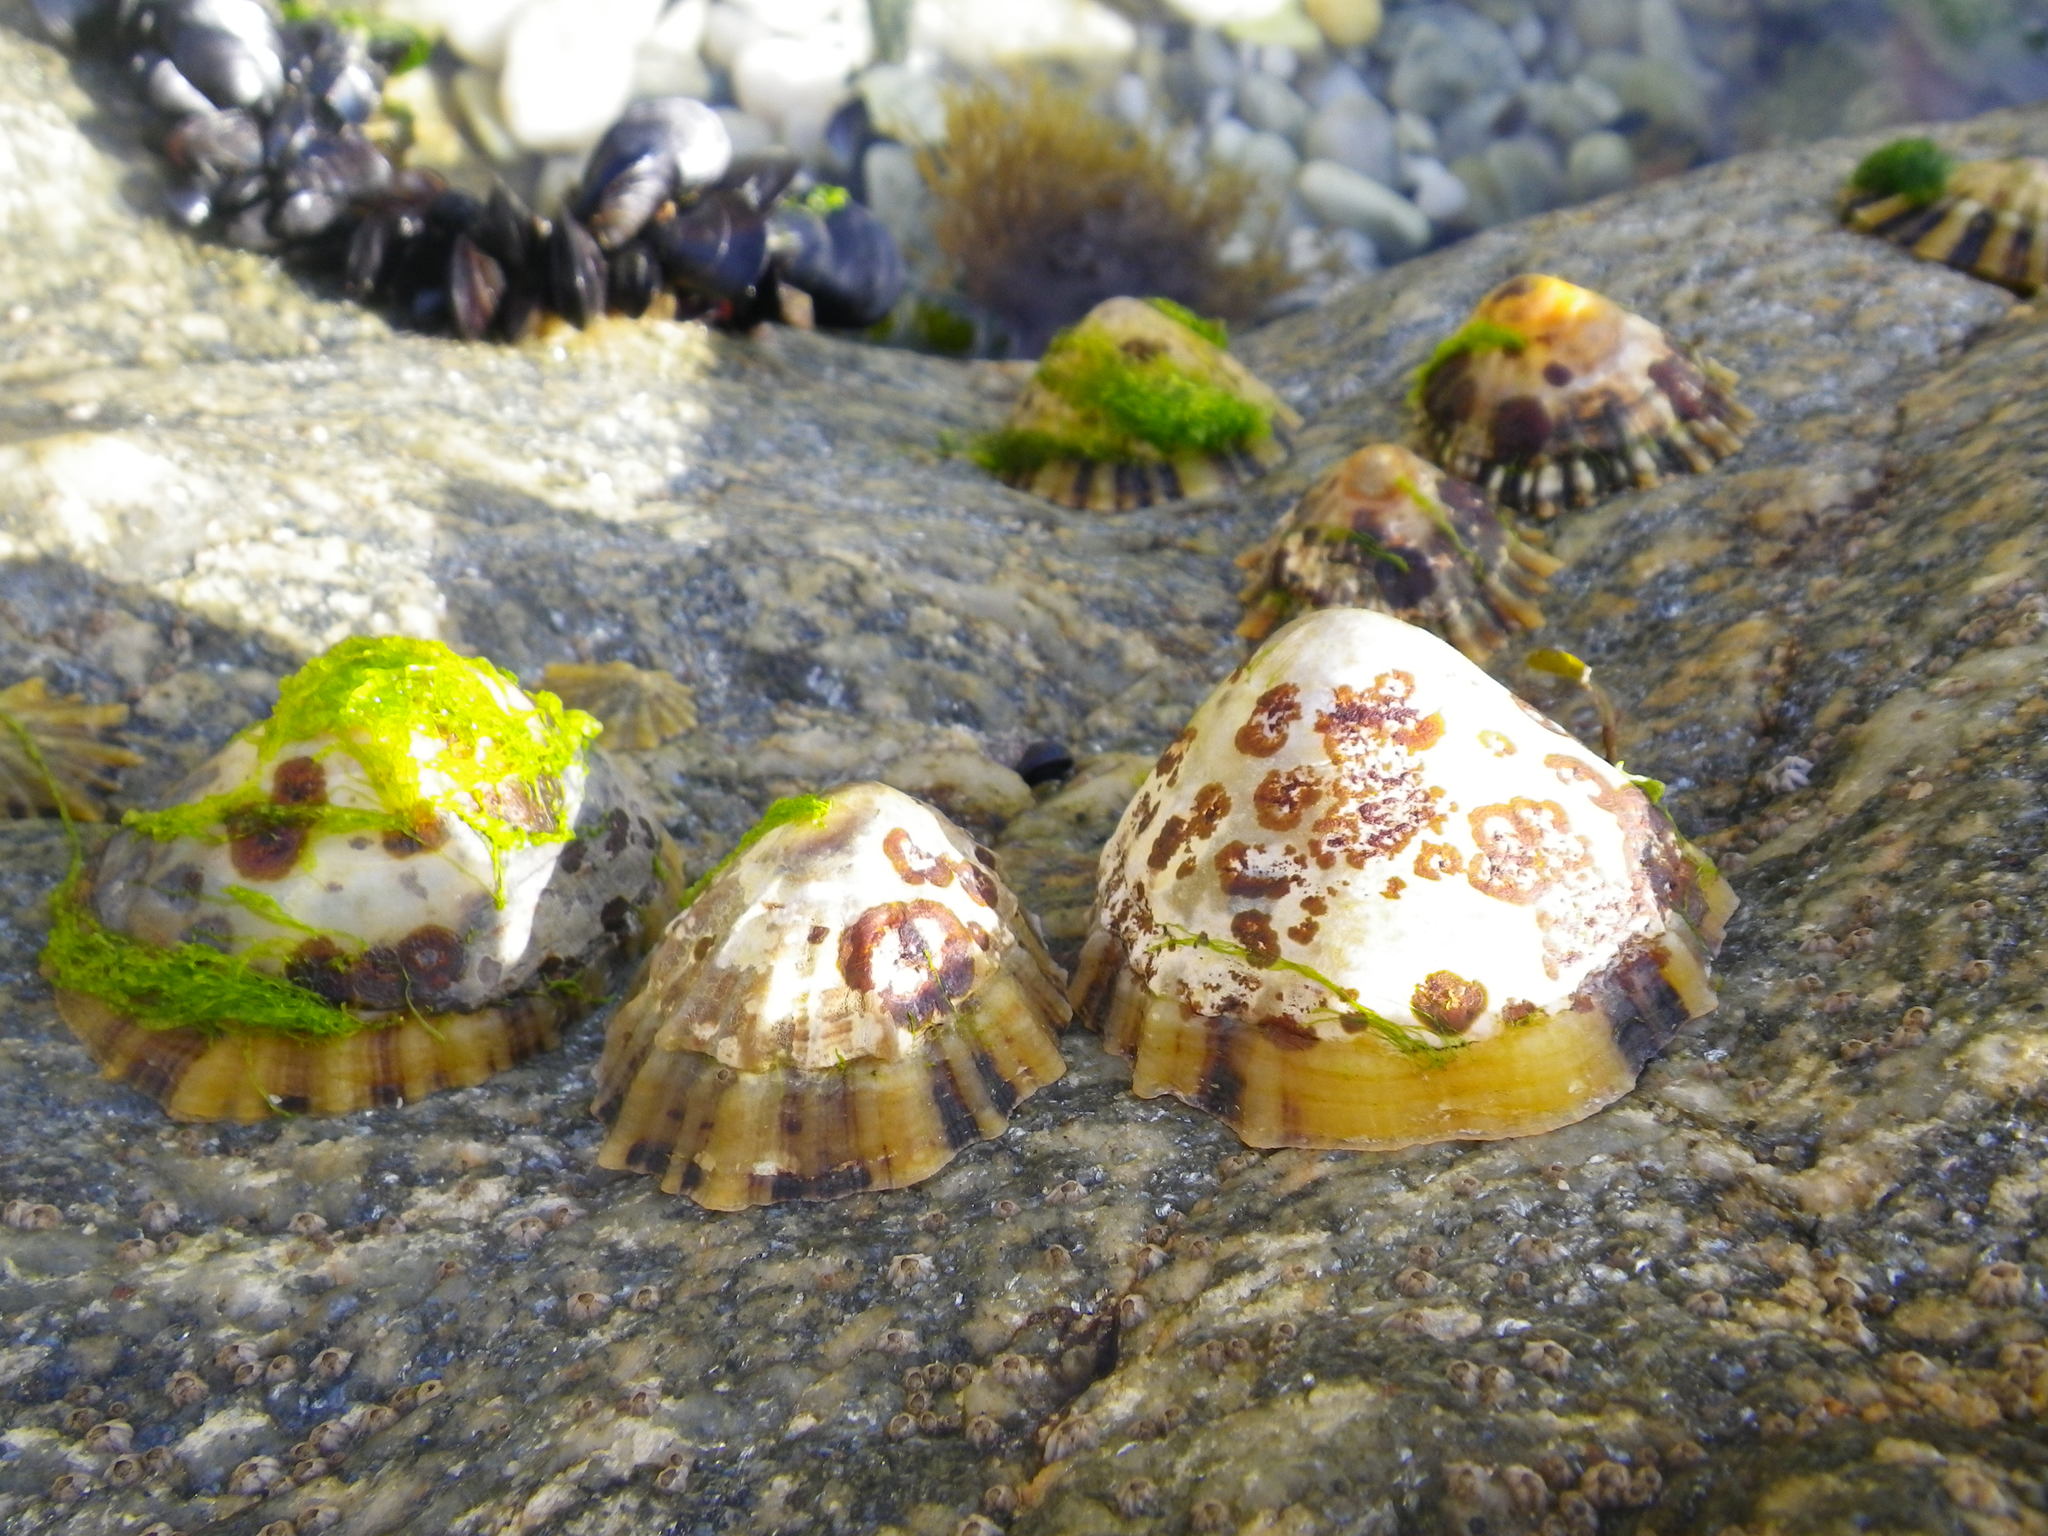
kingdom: Animalia
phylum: Mollusca
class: Gastropoda
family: Patellidae
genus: Patella
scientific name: Patella vulgata
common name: Common limpet
